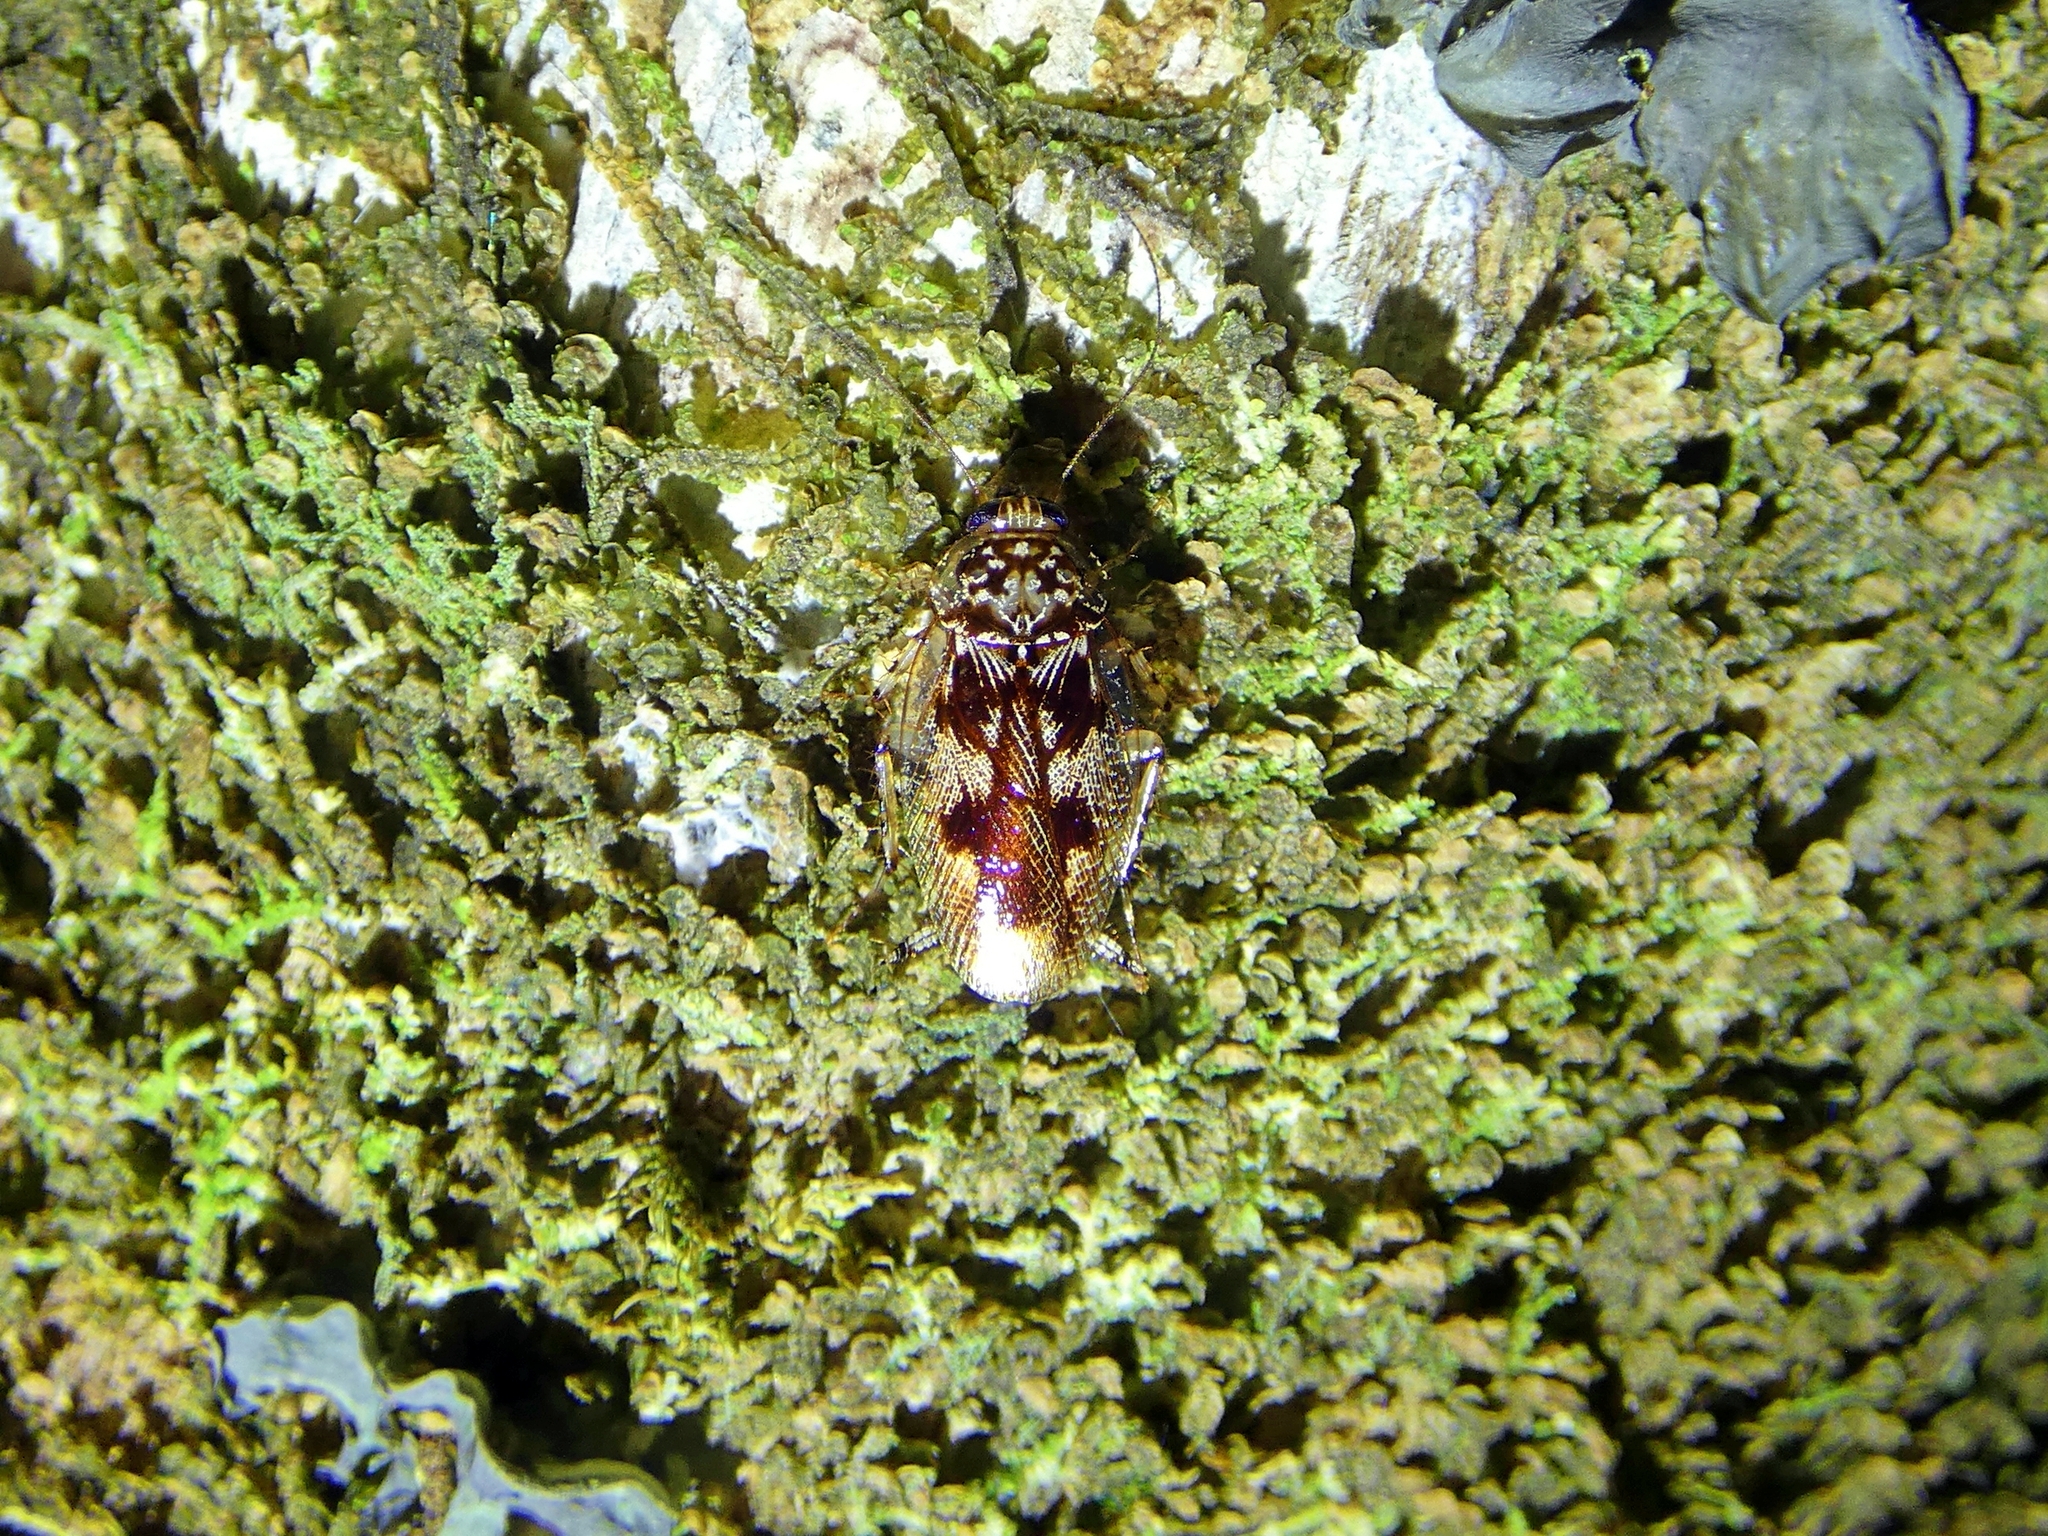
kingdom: Animalia
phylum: Arthropoda
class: Insecta
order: Blattodea
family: Ectobiidae
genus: Allacta
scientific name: Allacta australiensis
